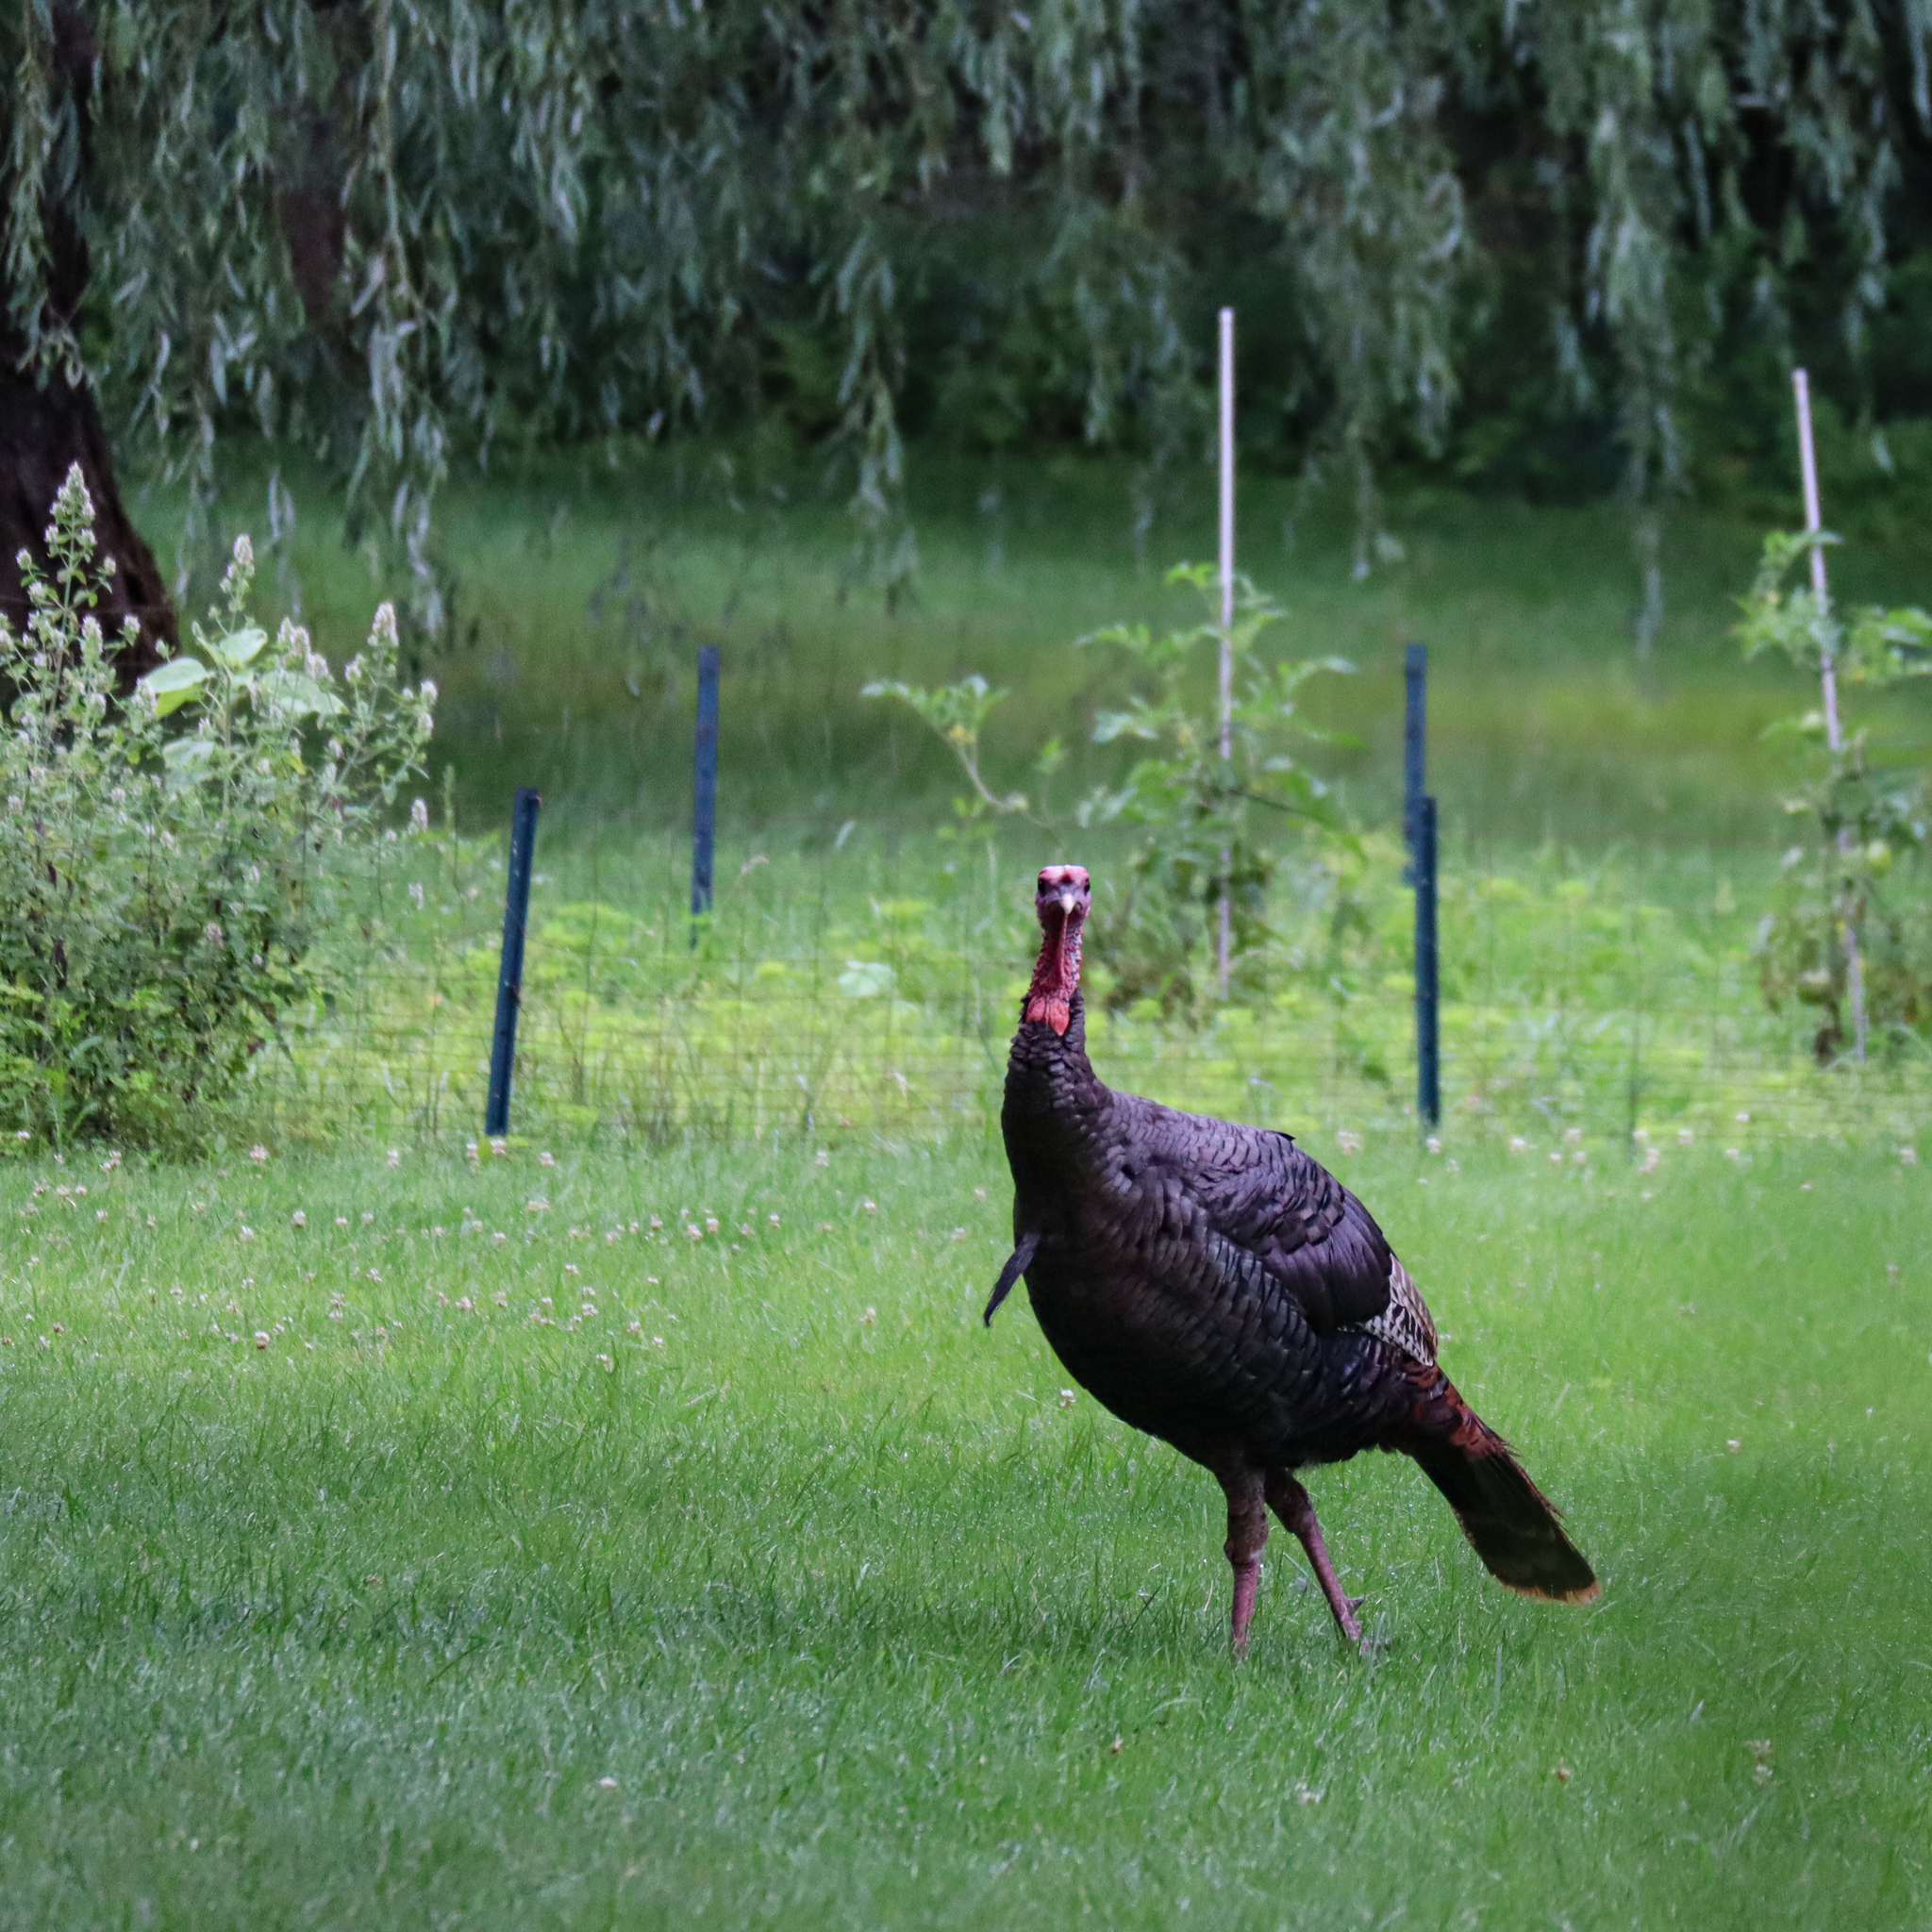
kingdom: Animalia
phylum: Chordata
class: Aves
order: Galliformes
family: Phasianidae
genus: Meleagris
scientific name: Meleagris gallopavo
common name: Wild turkey
